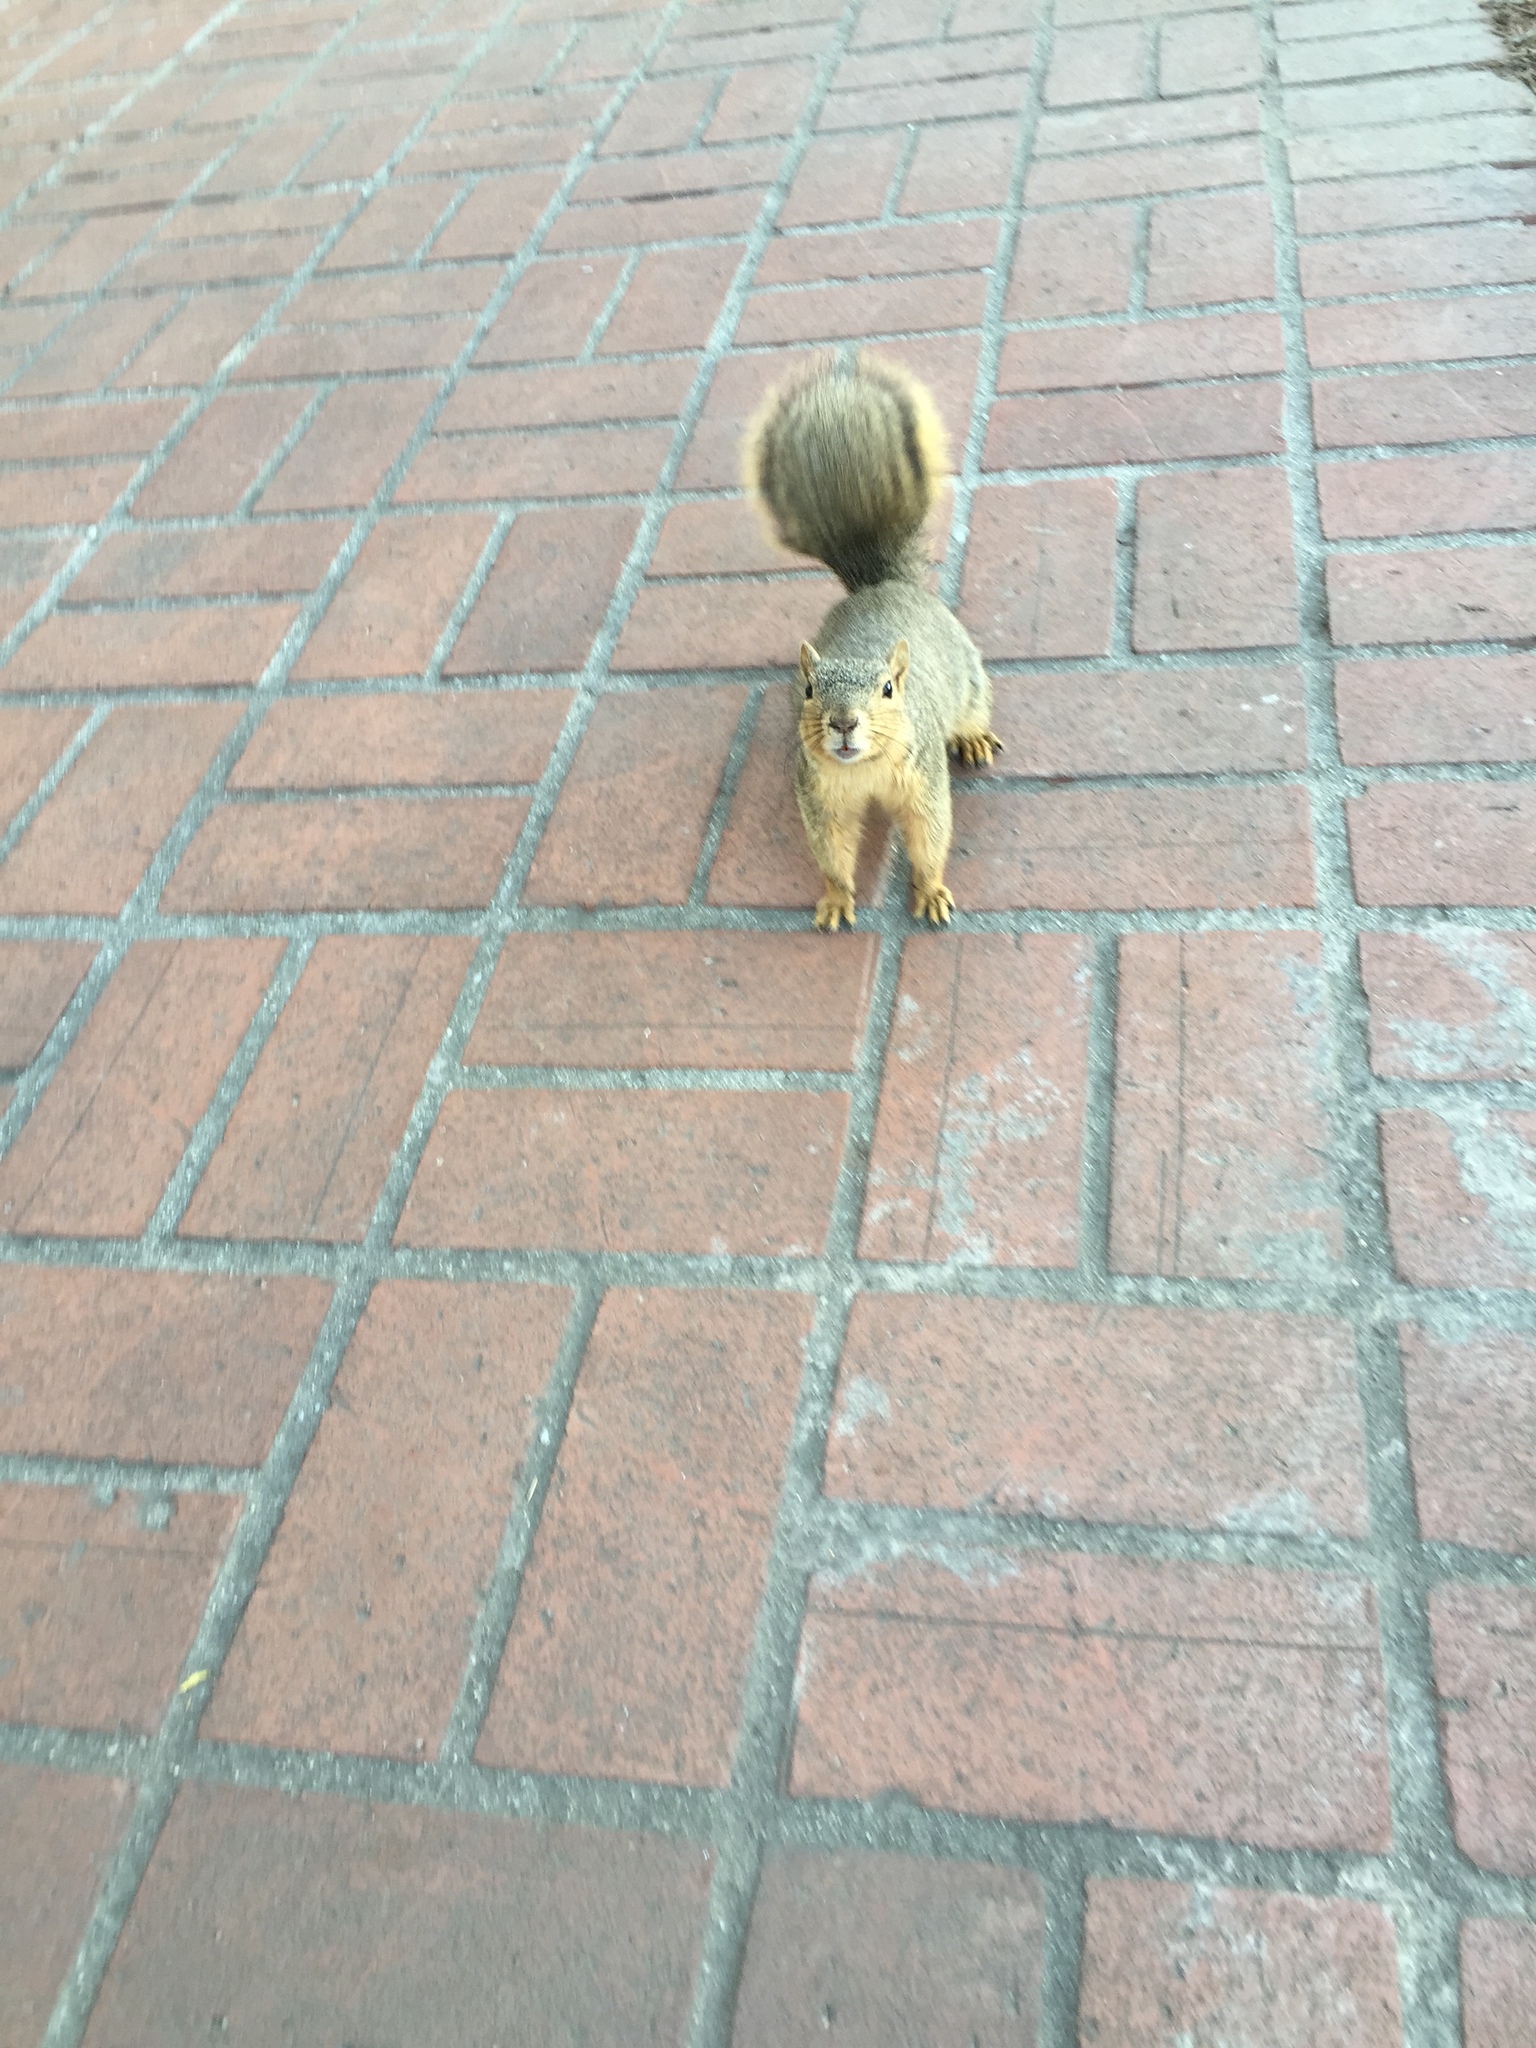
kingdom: Animalia
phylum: Chordata
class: Mammalia
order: Rodentia
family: Sciuridae
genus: Sciurus
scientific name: Sciurus niger
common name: Fox squirrel
